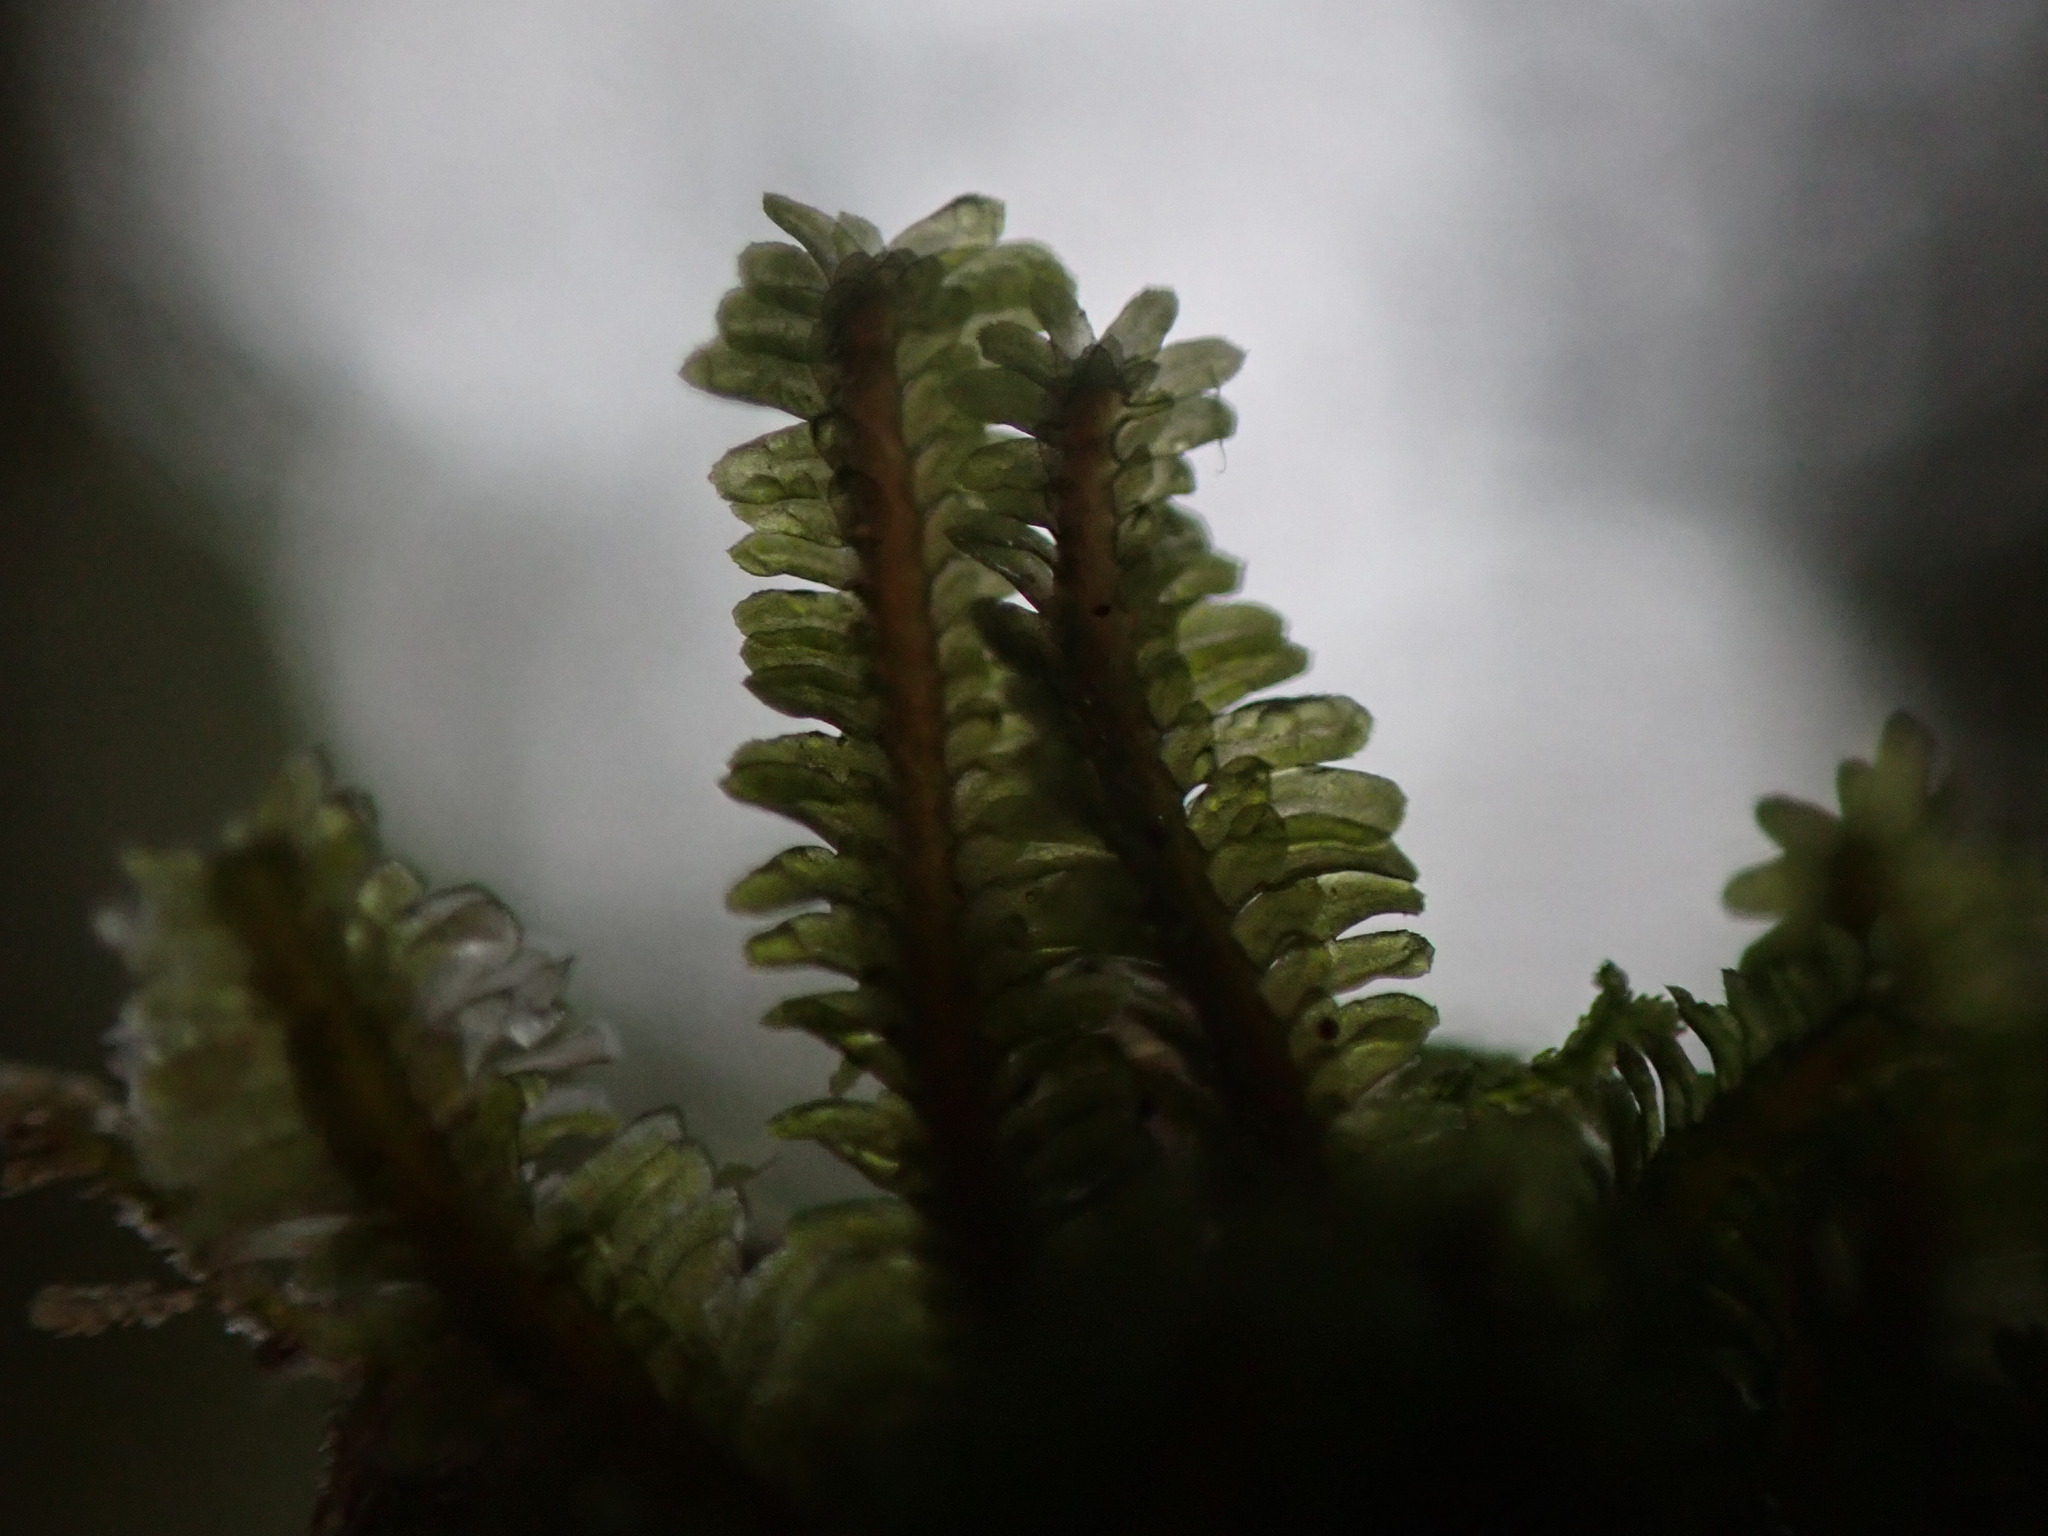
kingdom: Plantae
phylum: Marchantiophyta
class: Jungermanniopsida
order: Jungermanniales
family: Scapaniaceae
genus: Diplophyllum
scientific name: Diplophyllum albicans
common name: White earwort
